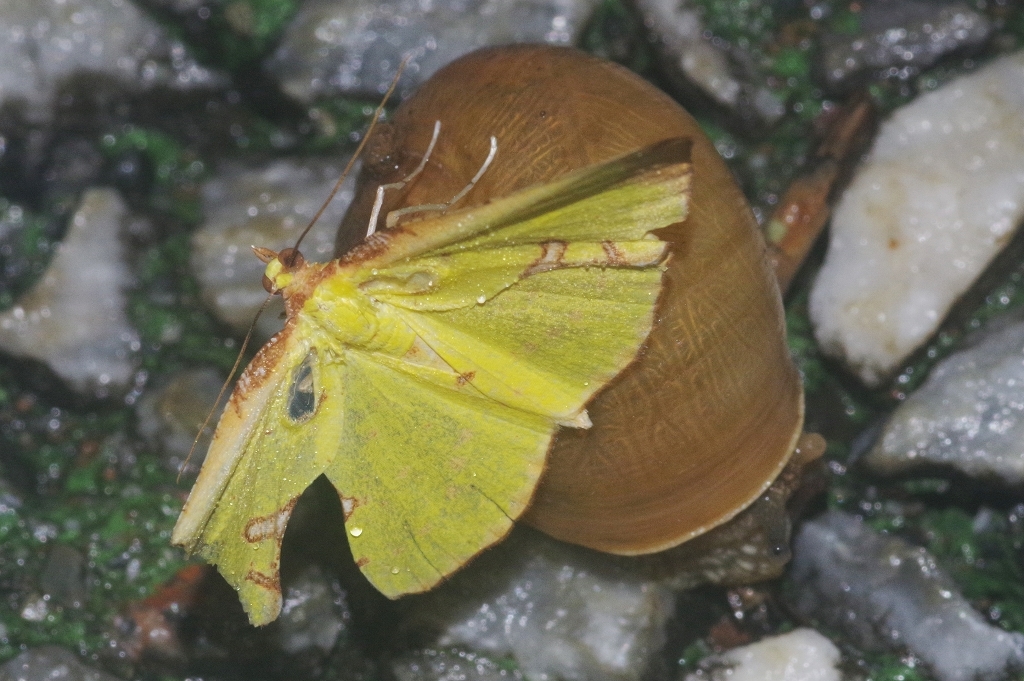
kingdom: Animalia
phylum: Arthropoda
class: Insecta
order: Lepidoptera
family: Geometridae
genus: Corymica
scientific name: Corymica pryeri
